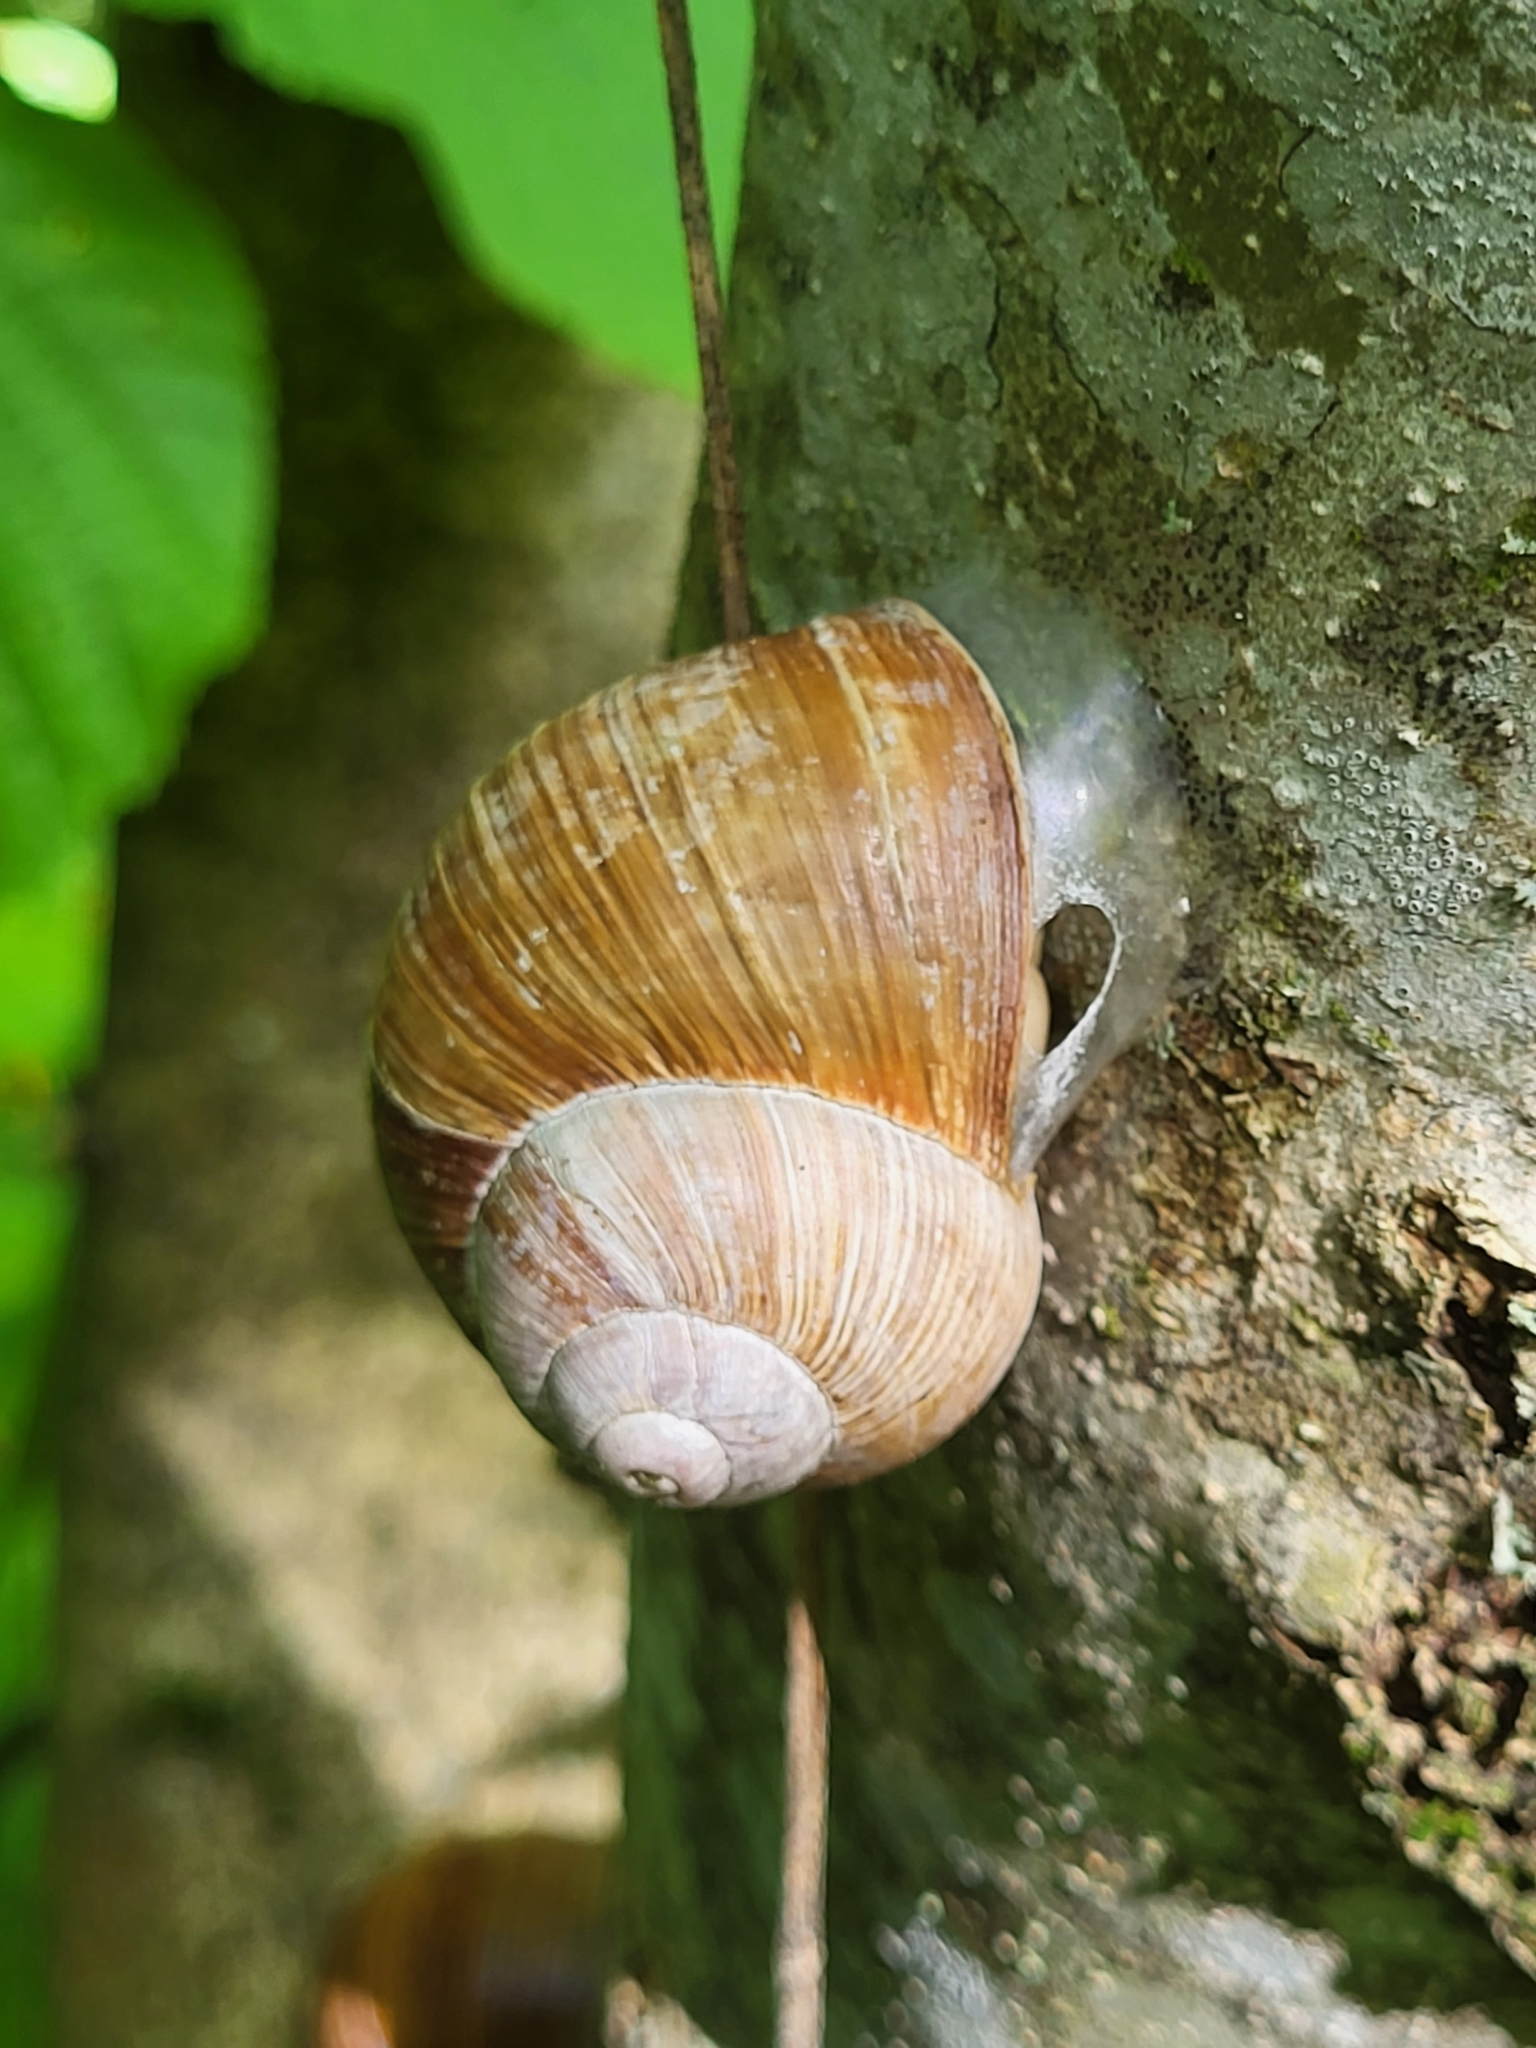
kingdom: Animalia
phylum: Mollusca
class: Gastropoda
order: Stylommatophora
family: Helicidae
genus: Helix
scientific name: Helix pomatia
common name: Roman snail
